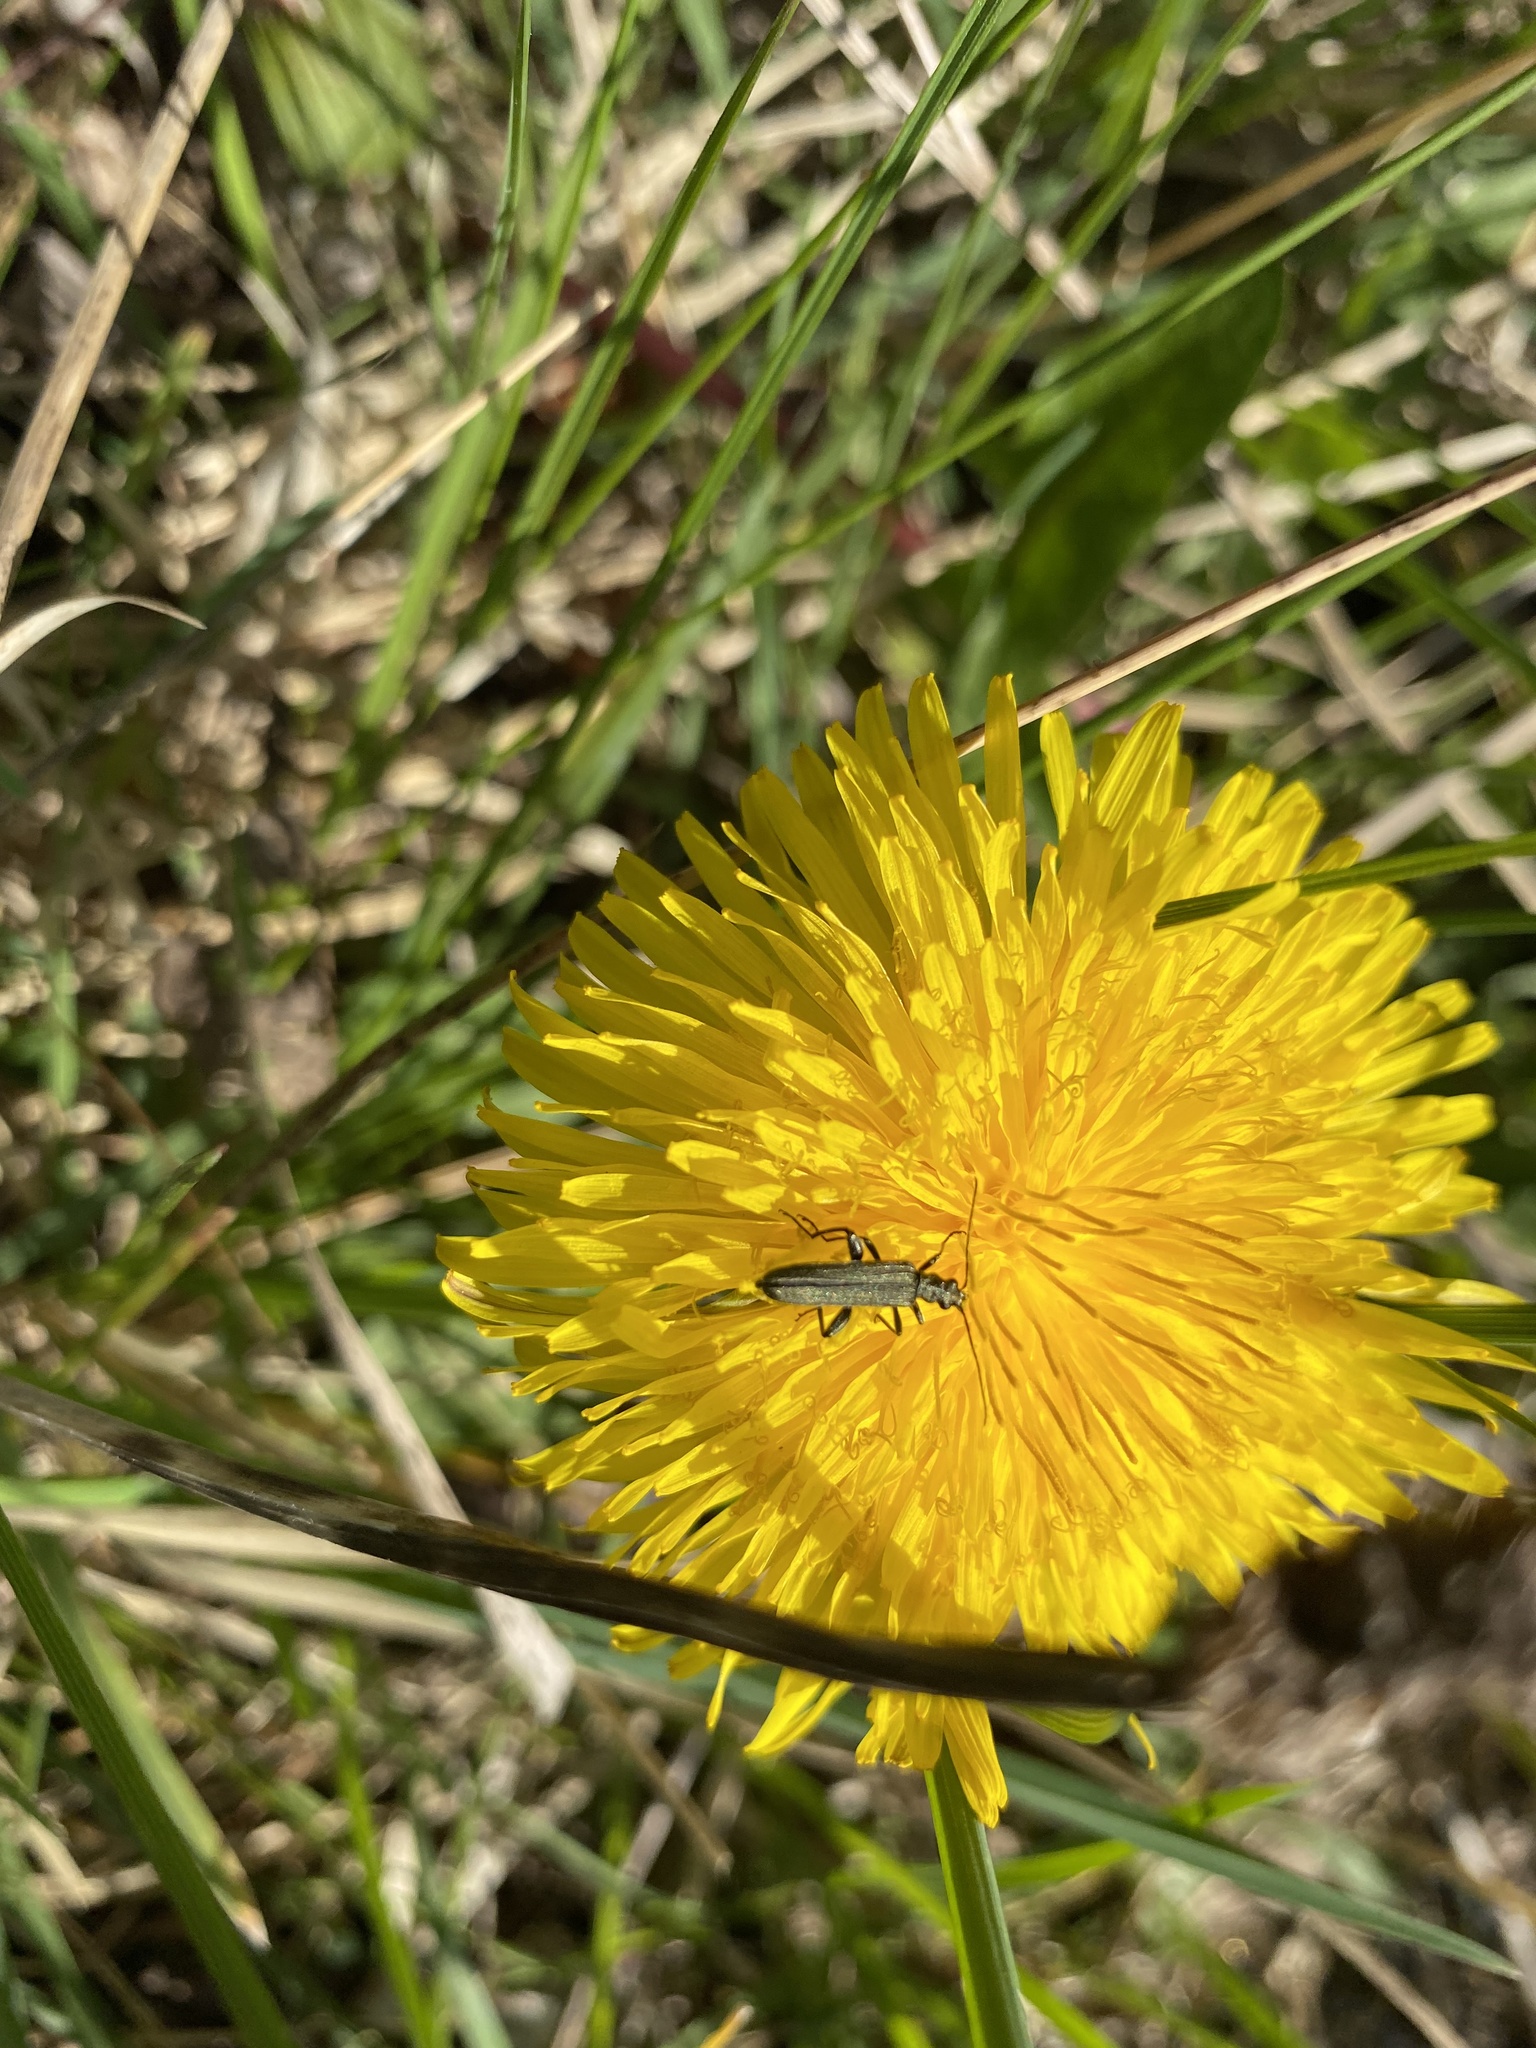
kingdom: Animalia
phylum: Arthropoda
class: Insecta
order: Coleoptera
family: Oedemeridae
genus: Oedemera
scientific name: Oedemera virescens
